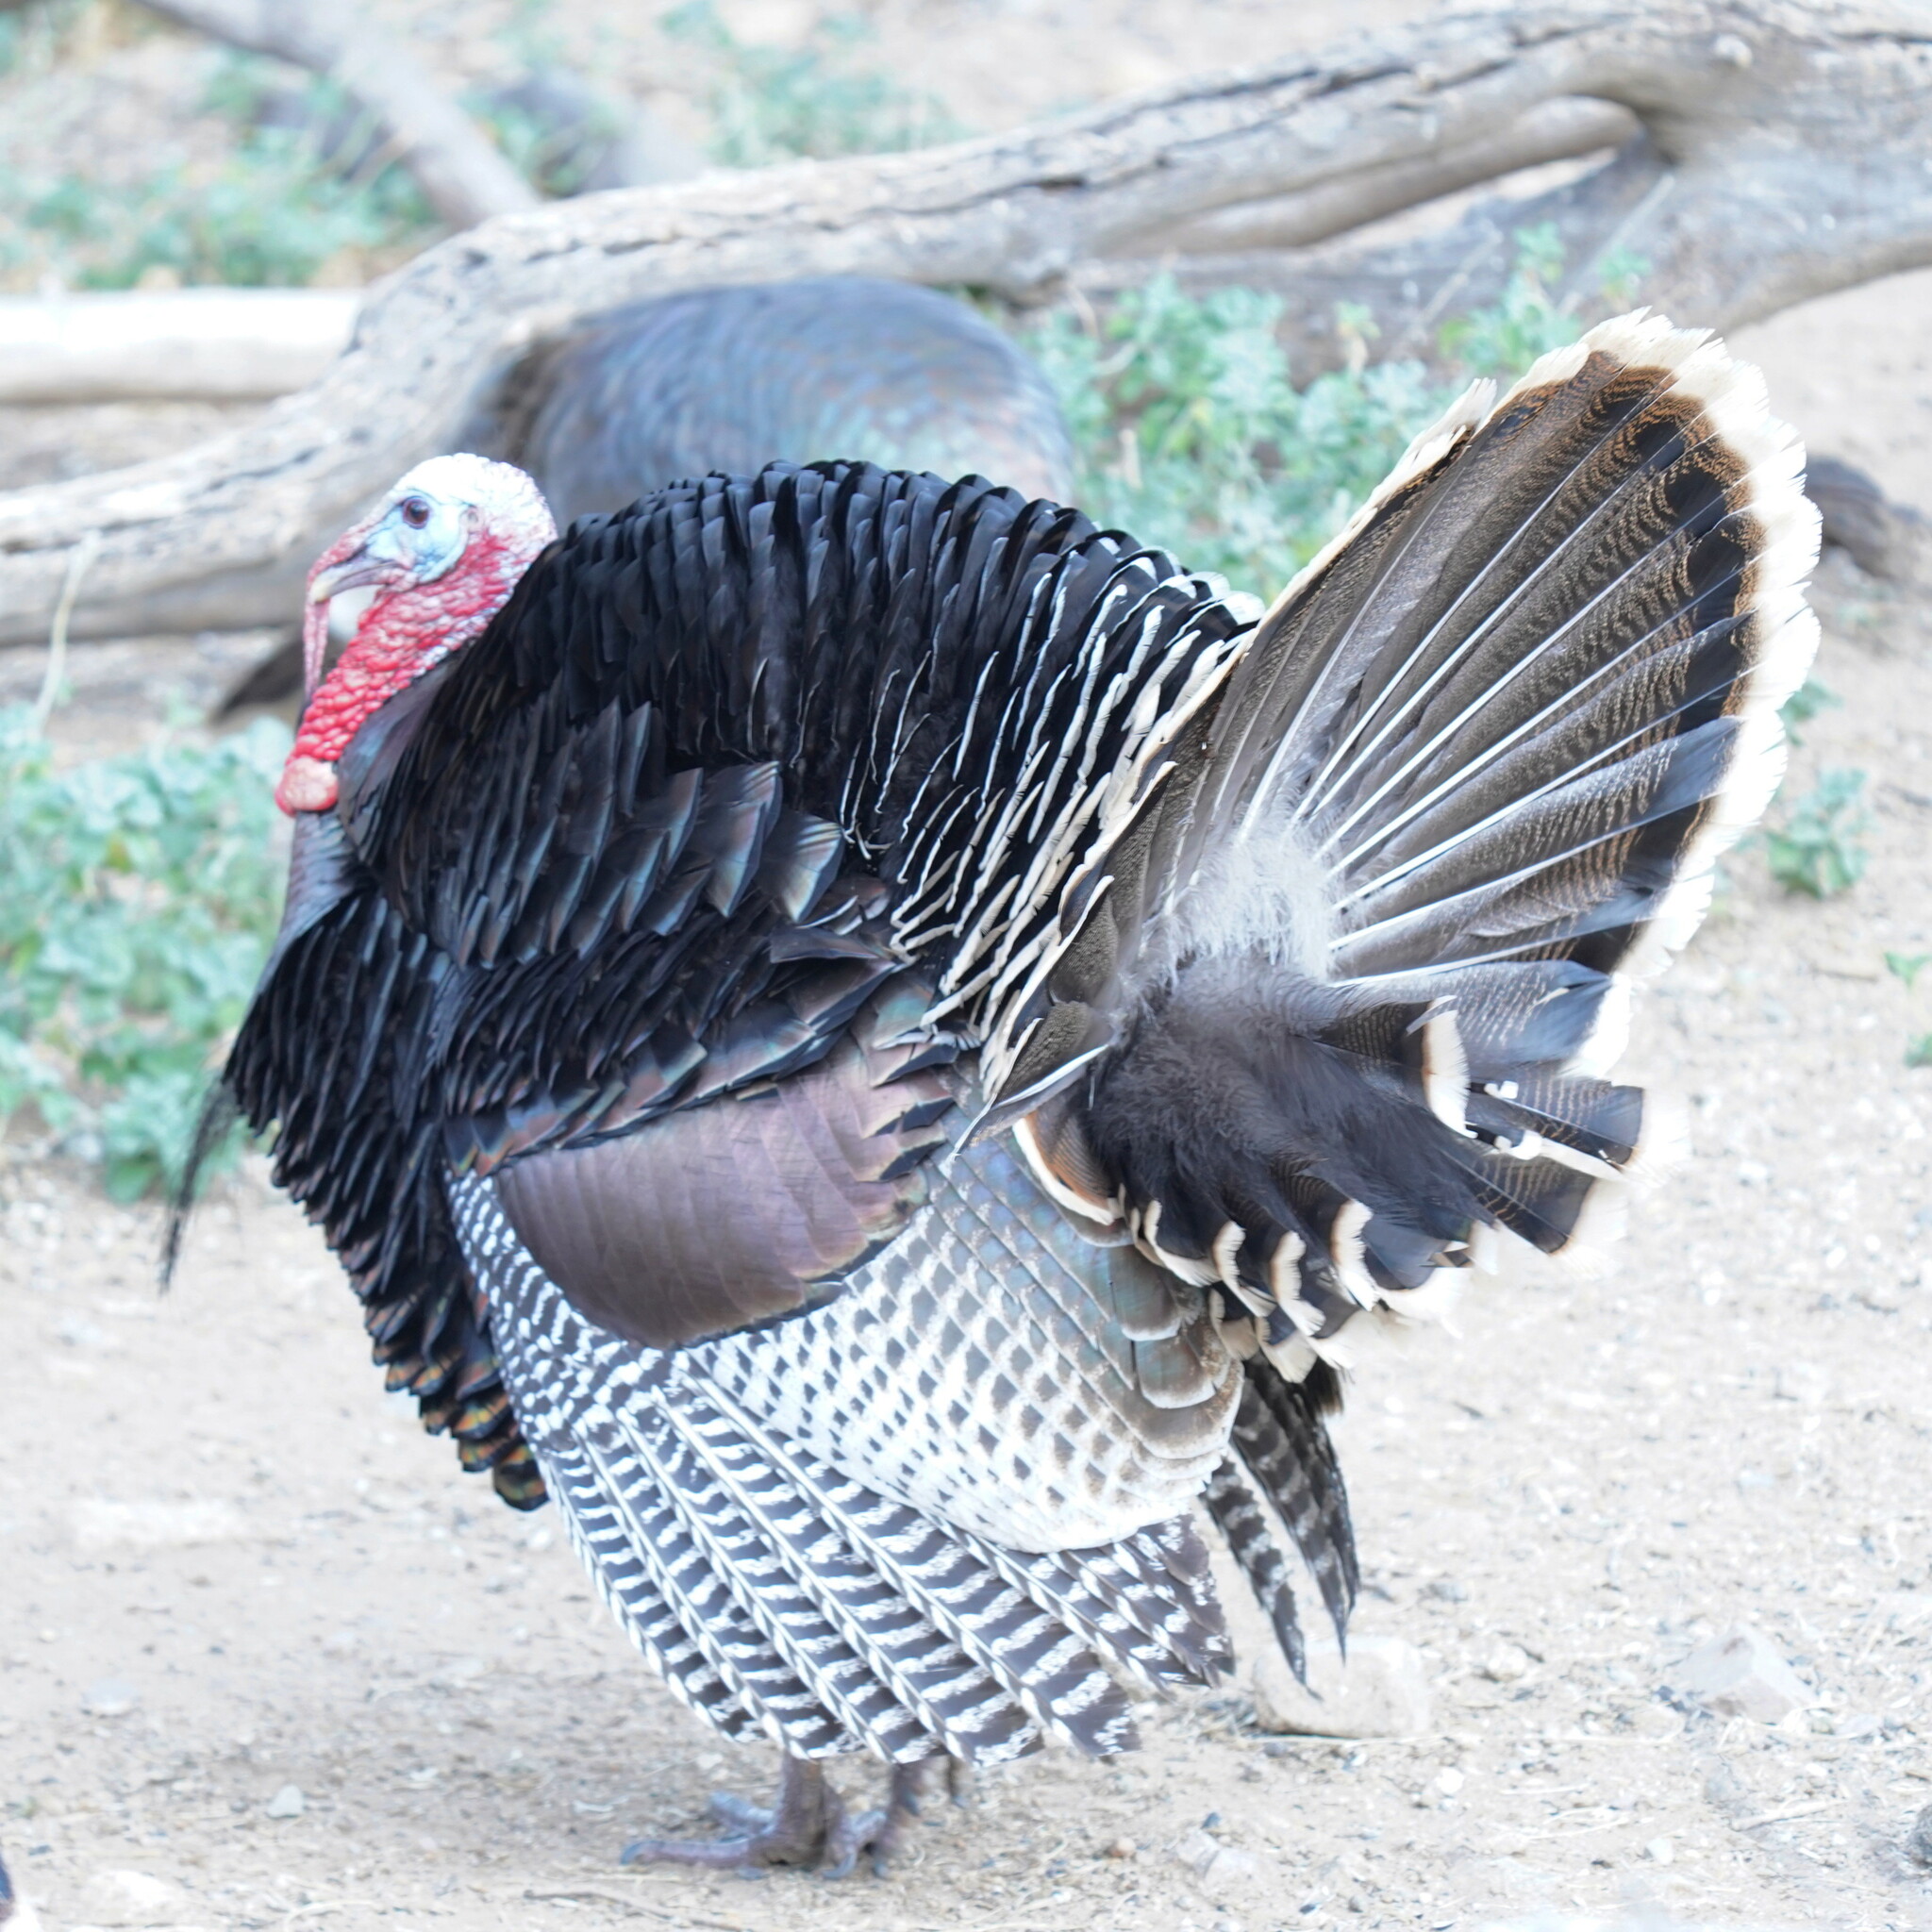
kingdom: Animalia
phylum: Chordata
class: Aves
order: Galliformes
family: Phasianidae
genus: Meleagris
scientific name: Meleagris gallopavo
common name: Wild turkey
